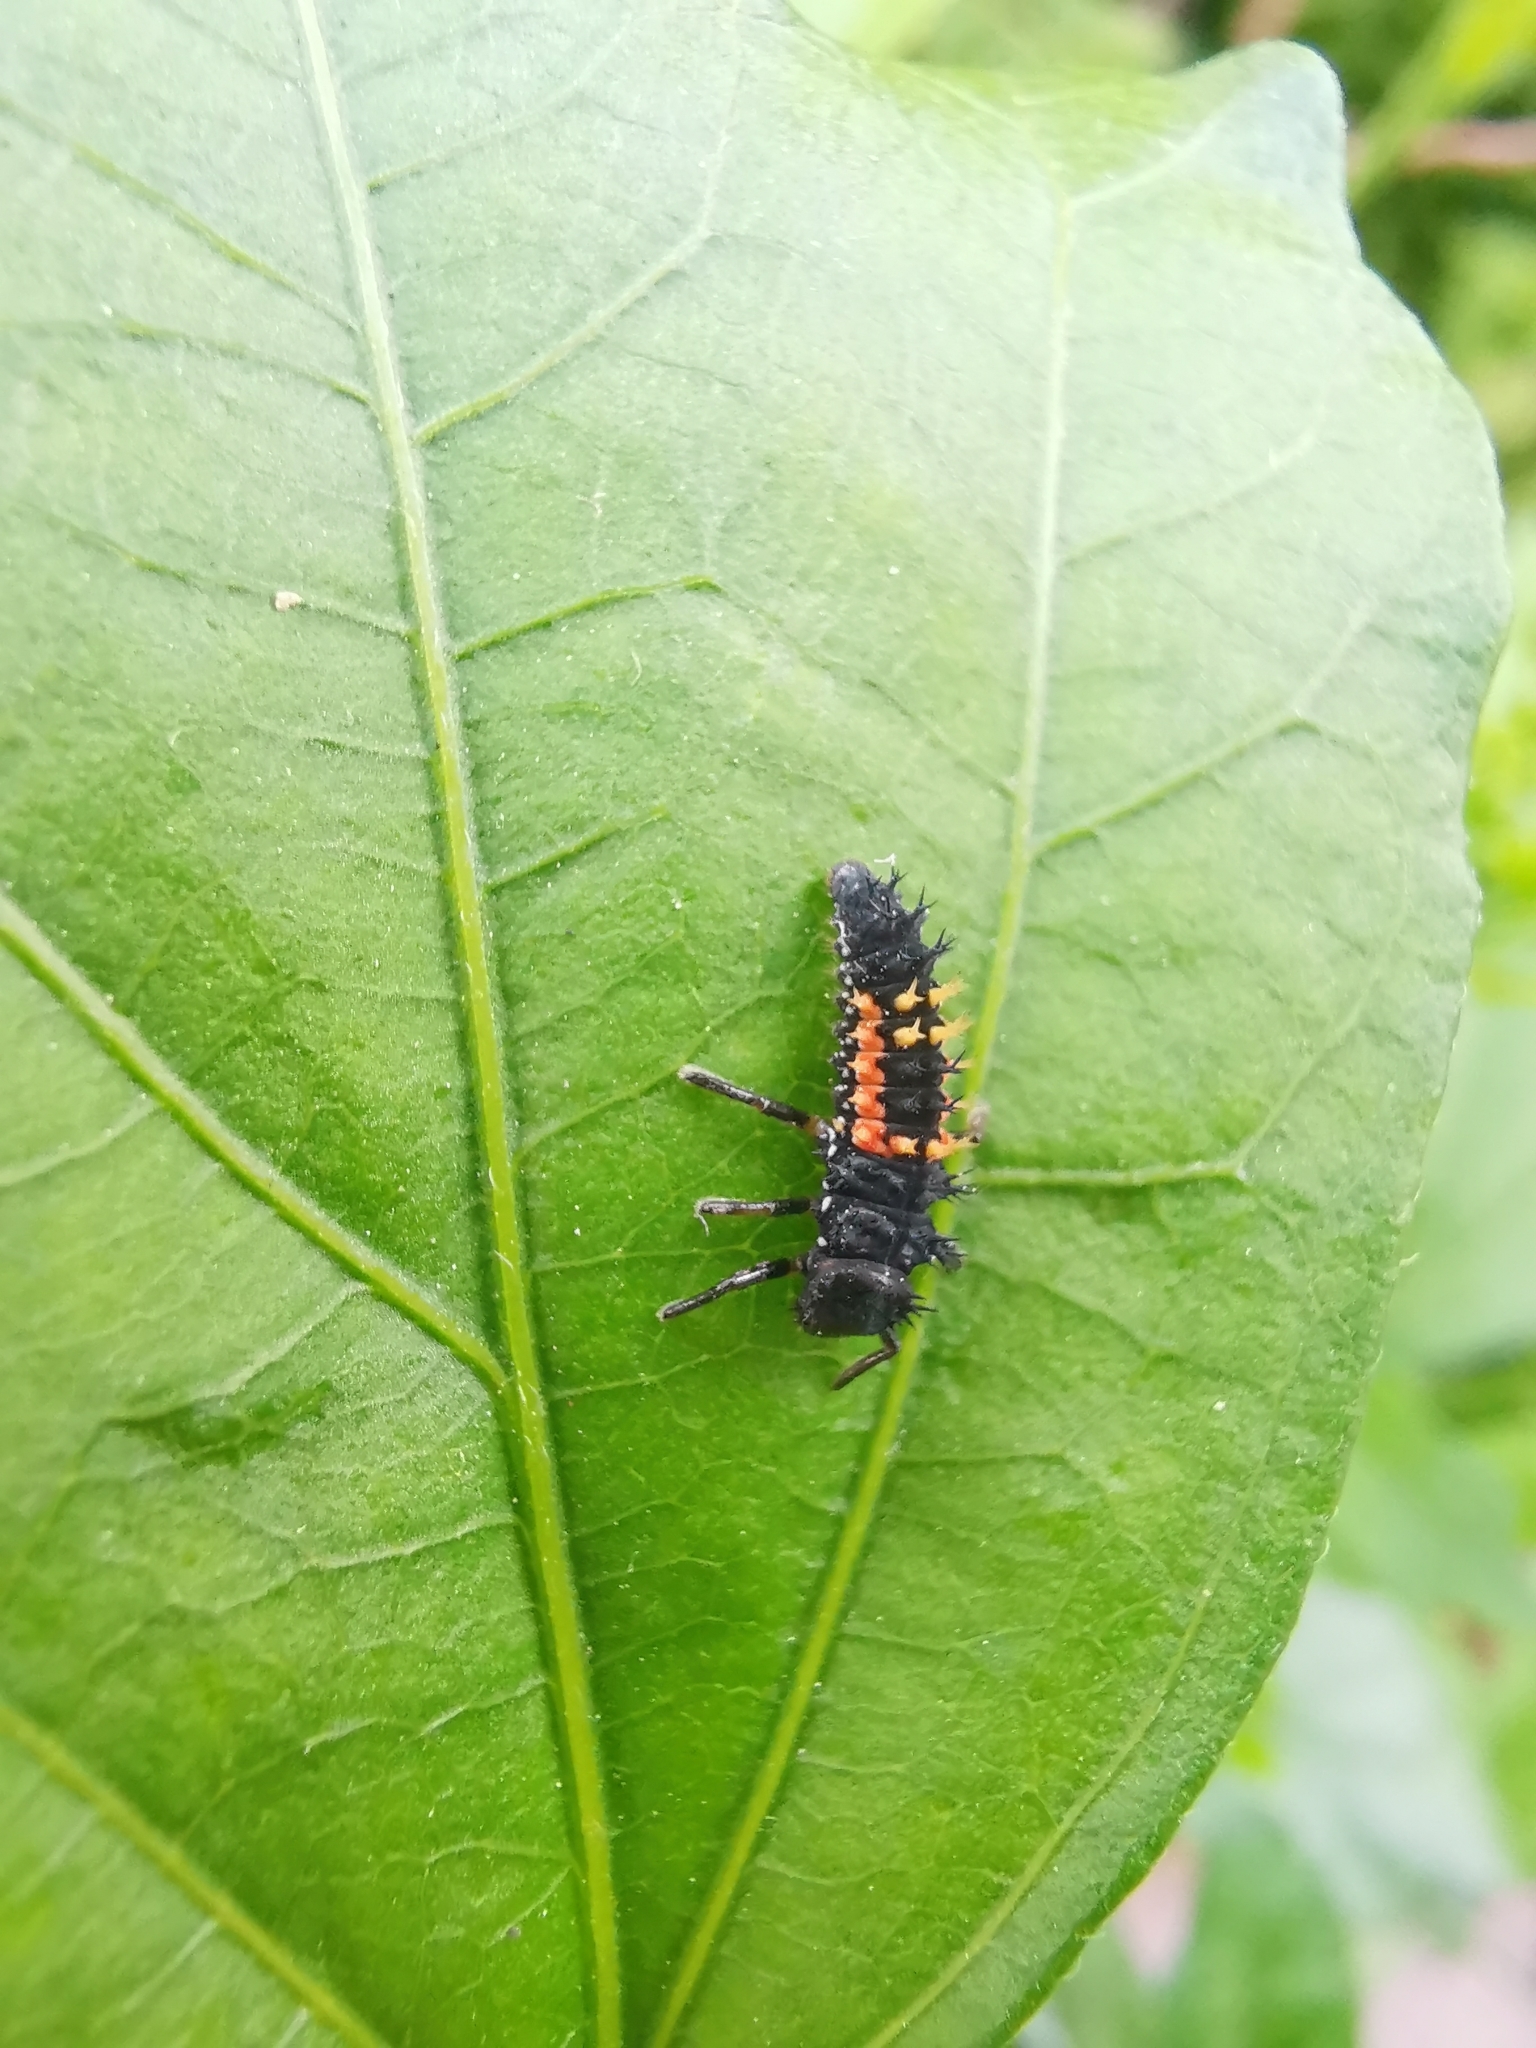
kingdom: Animalia
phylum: Arthropoda
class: Insecta
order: Coleoptera
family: Coccinellidae
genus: Harmonia
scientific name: Harmonia axyridis
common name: Harlequin ladybird
